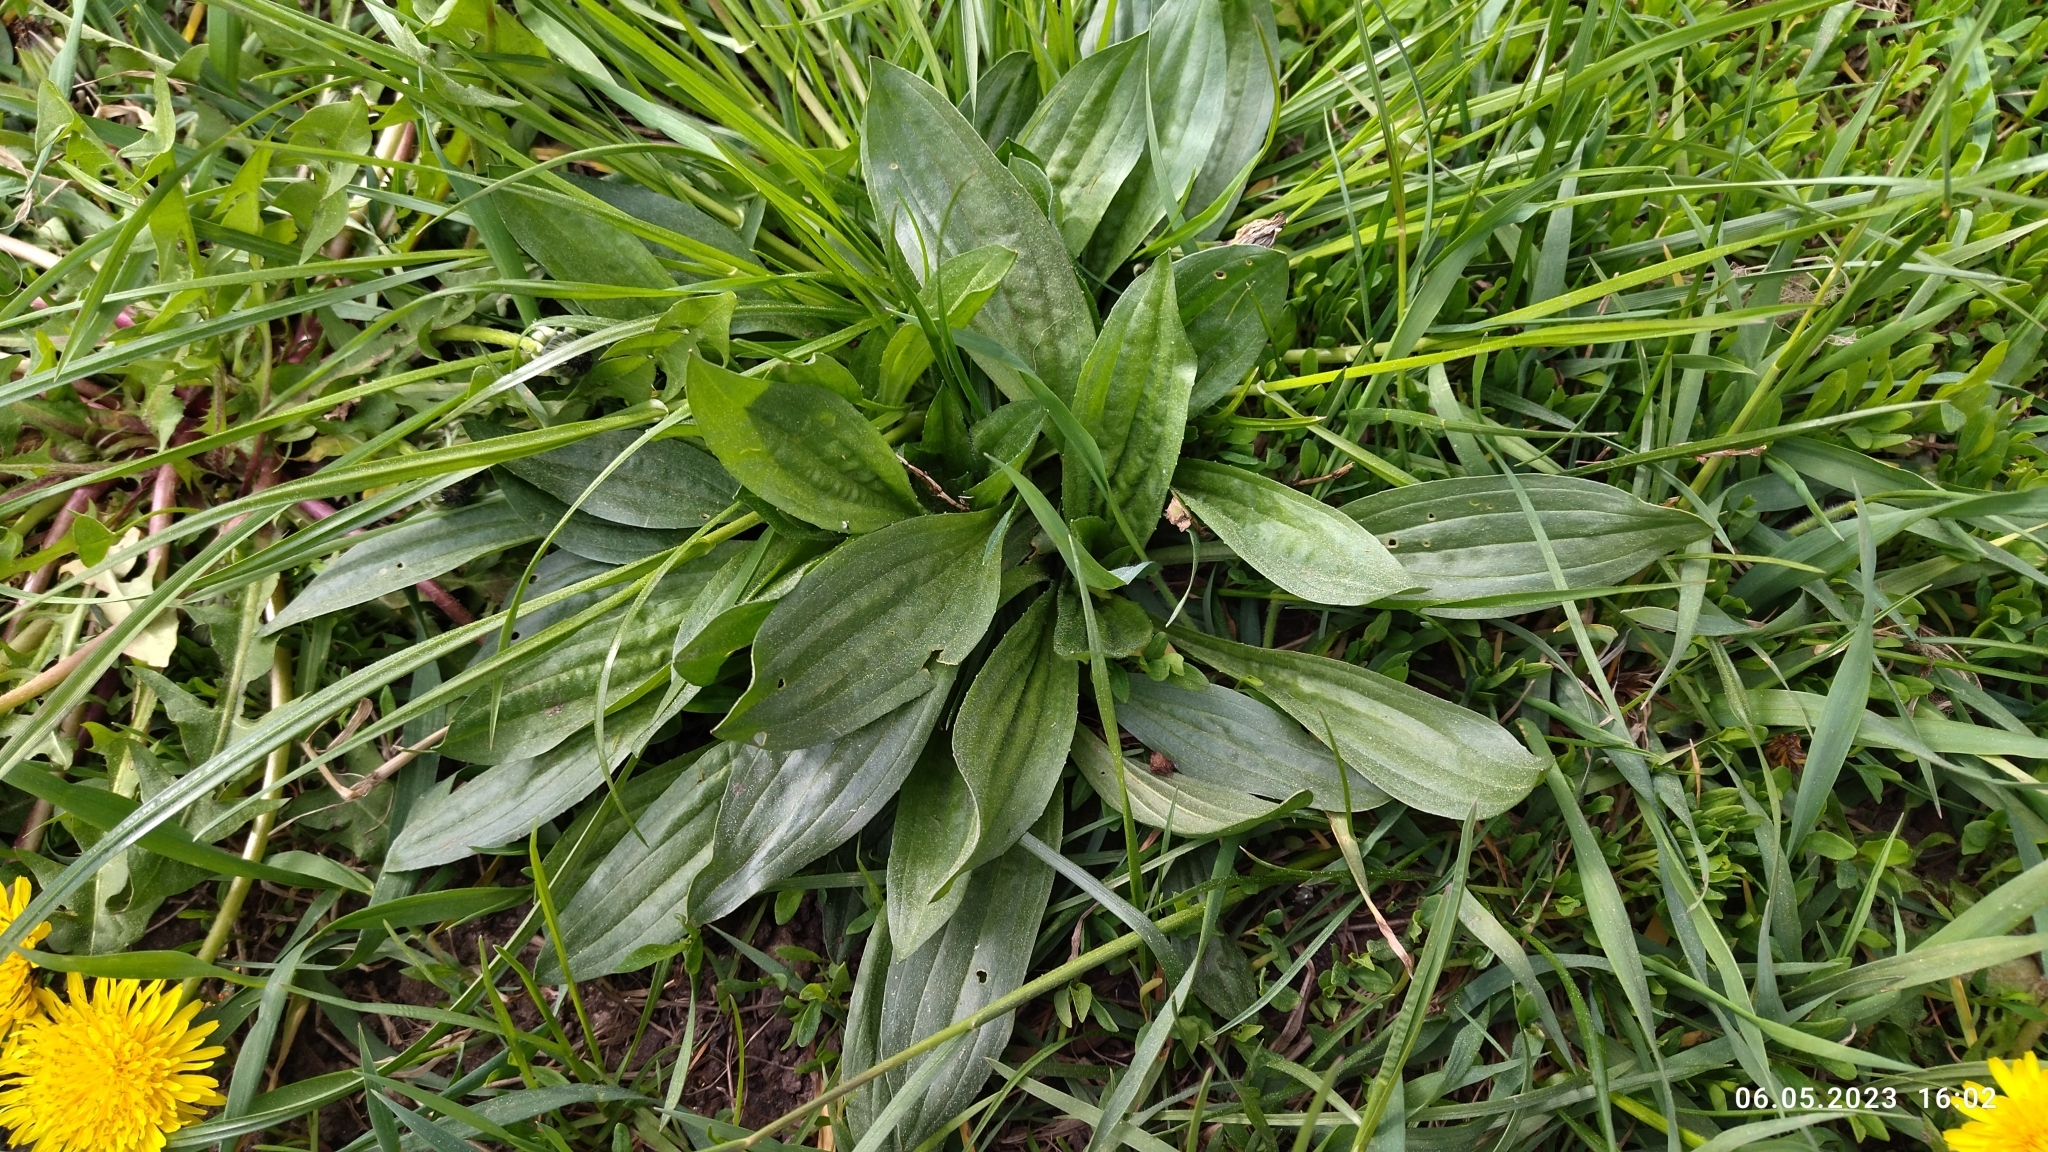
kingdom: Plantae
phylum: Tracheophyta
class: Magnoliopsida
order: Lamiales
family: Plantaginaceae
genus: Plantago
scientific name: Plantago lanceolata
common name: Ribwort plantain
